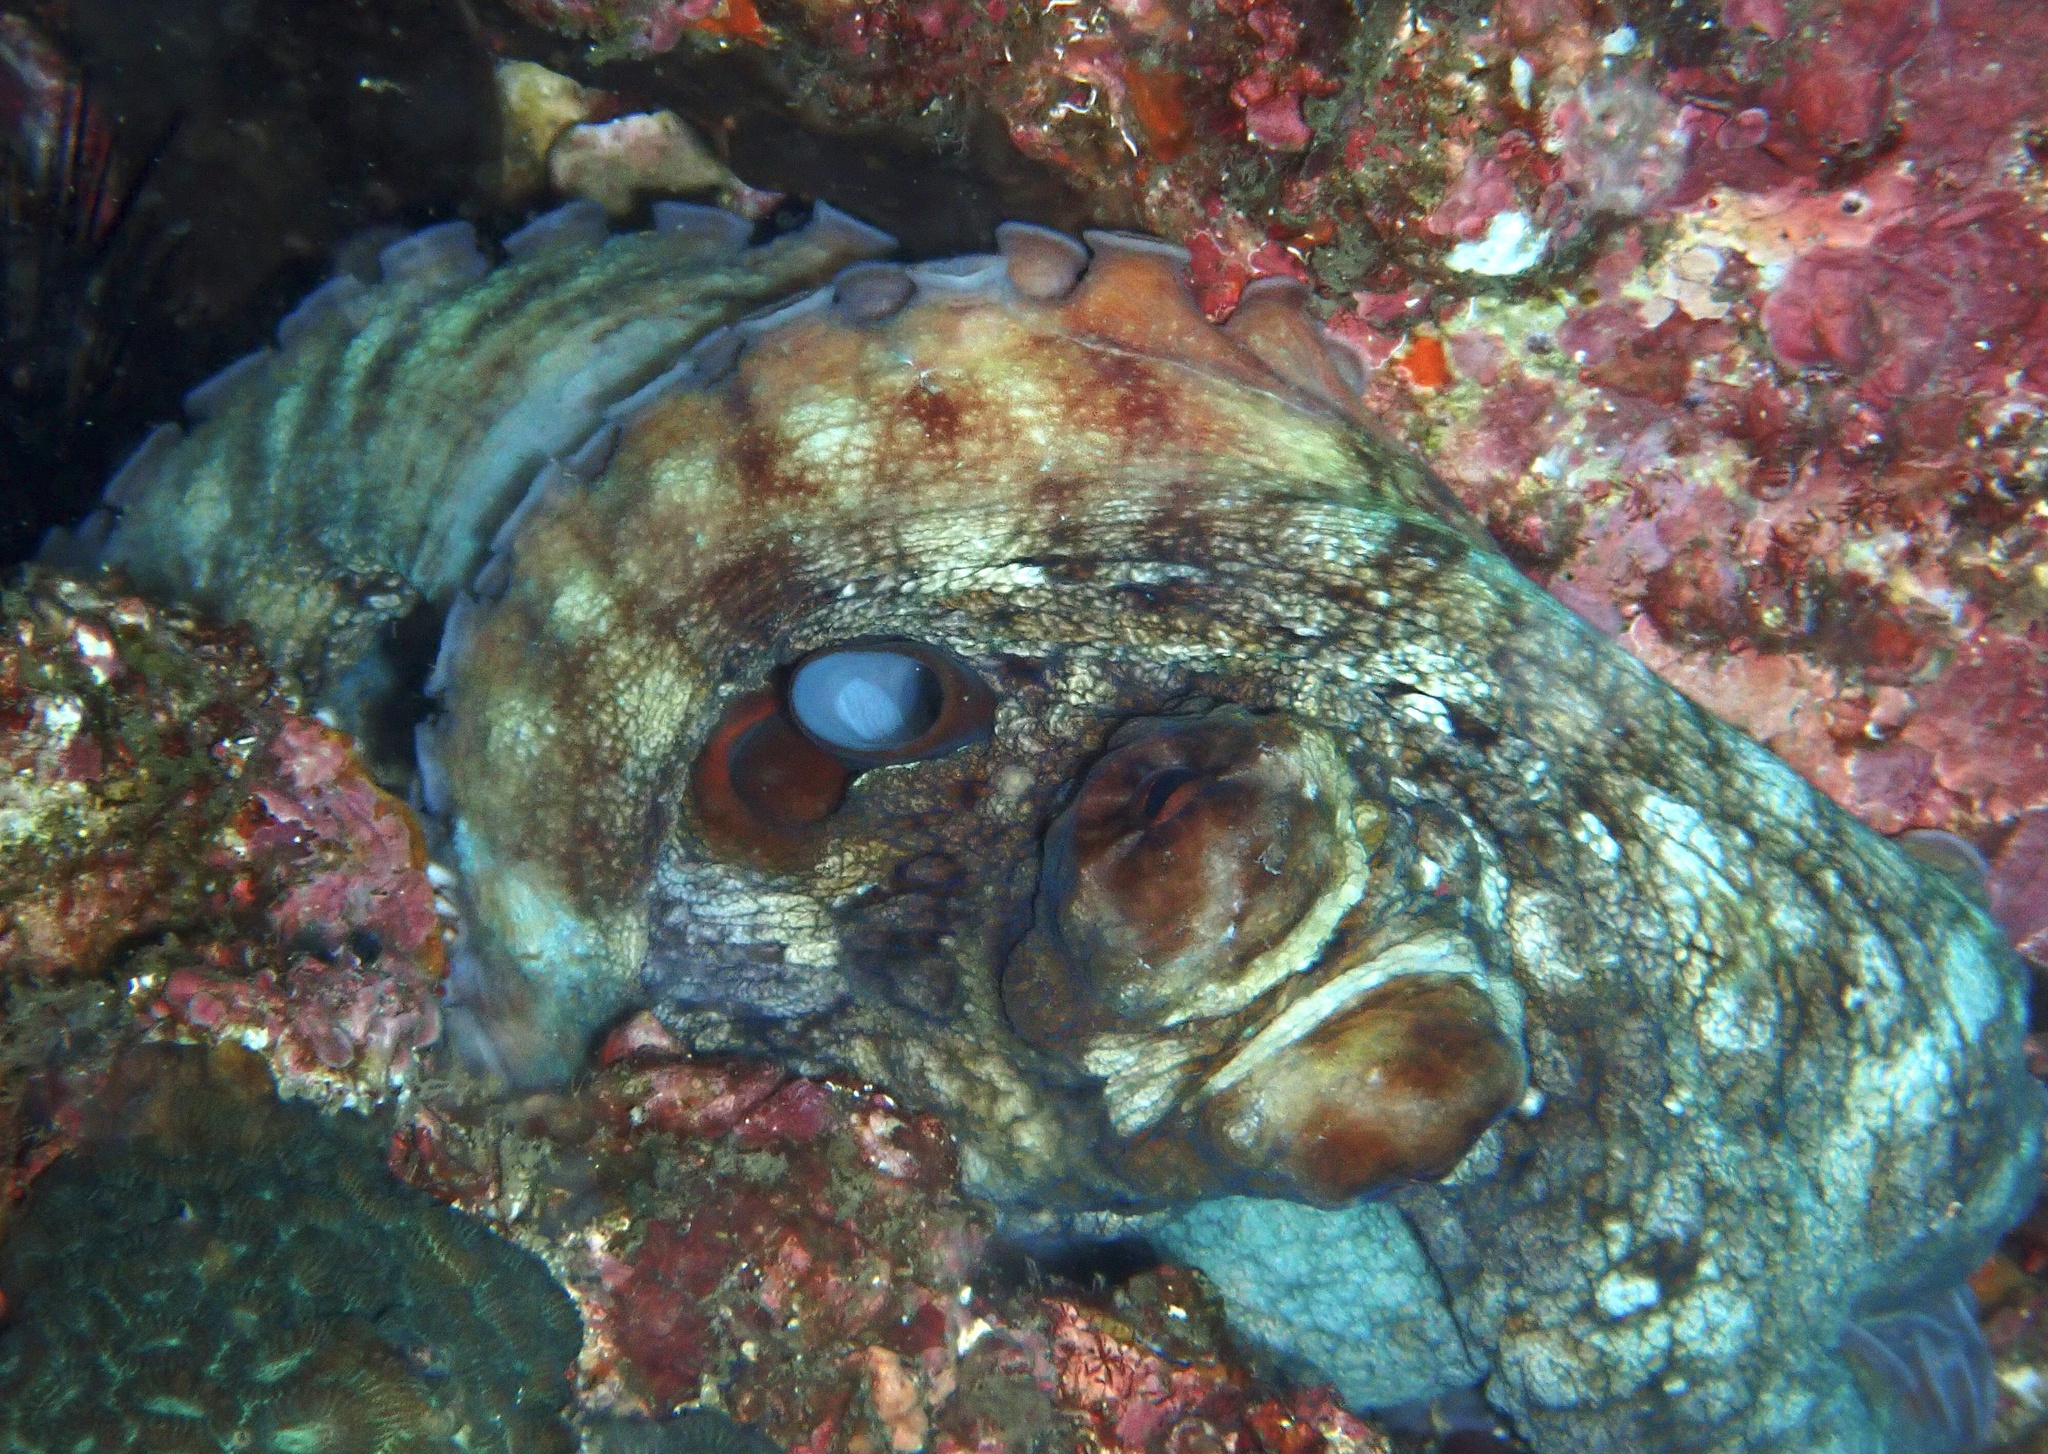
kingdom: Animalia
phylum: Mollusca
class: Cephalopoda
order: Octopoda
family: Octopodidae
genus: Octopus
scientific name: Octopus cyanea
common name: Cyane's octopus
